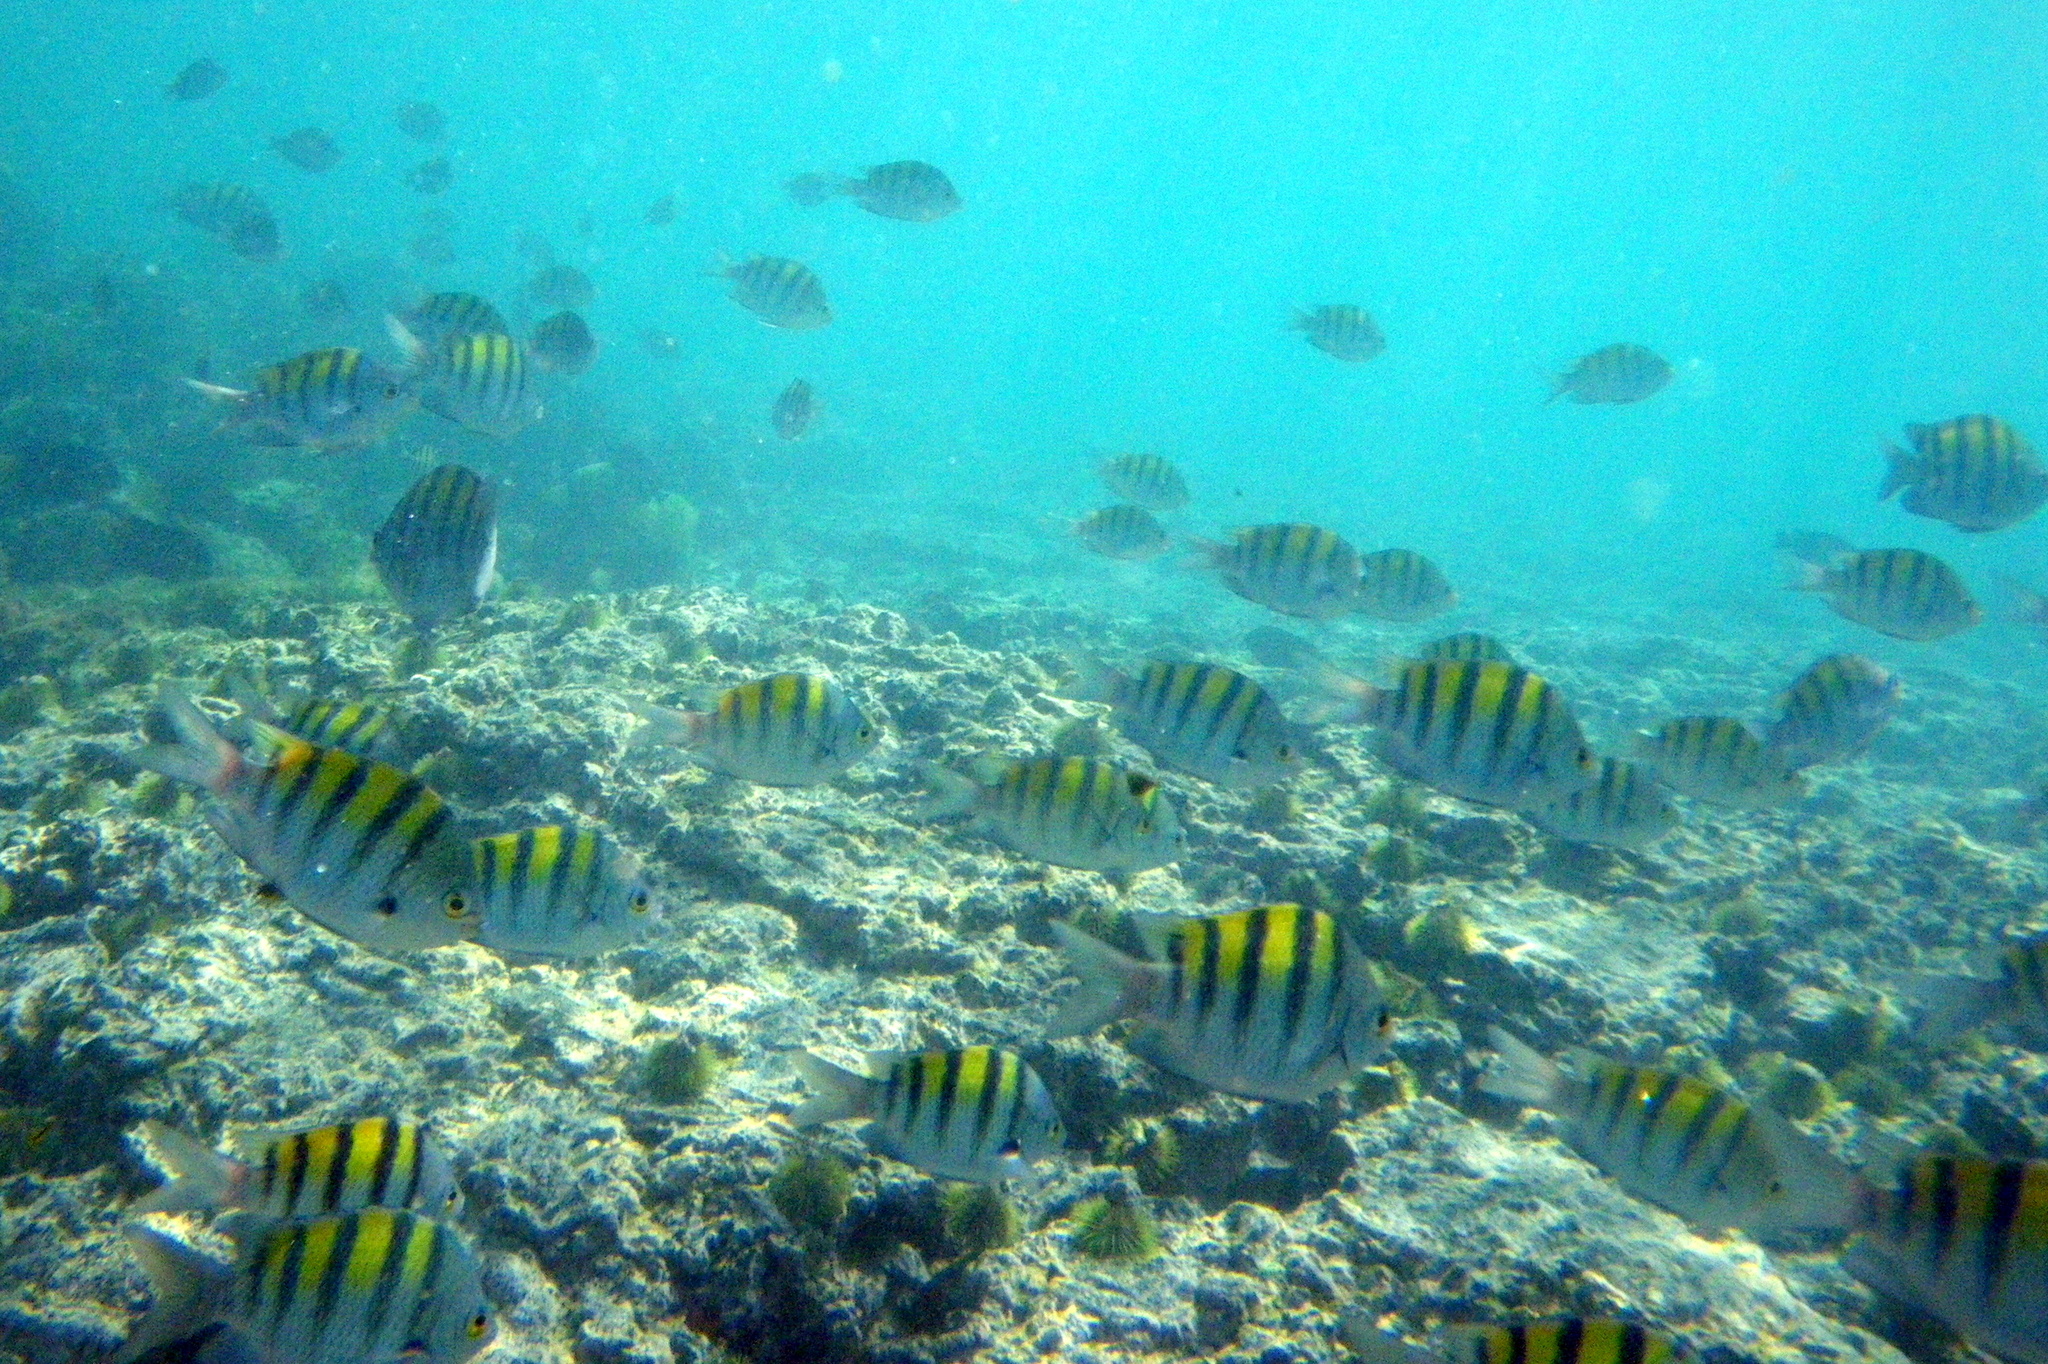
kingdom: Animalia
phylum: Chordata
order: Perciformes
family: Pomacentridae
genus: Abudefduf
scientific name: Abudefduf troschelii
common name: Panamic sergeant major
